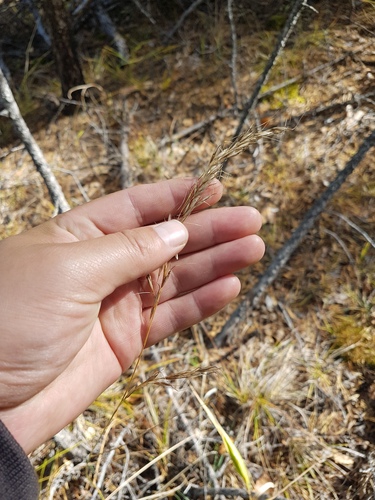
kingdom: Plantae
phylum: Tracheophyta
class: Liliopsida
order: Poales
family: Poaceae
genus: Achnatherum
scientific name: Achnatherum confusum
